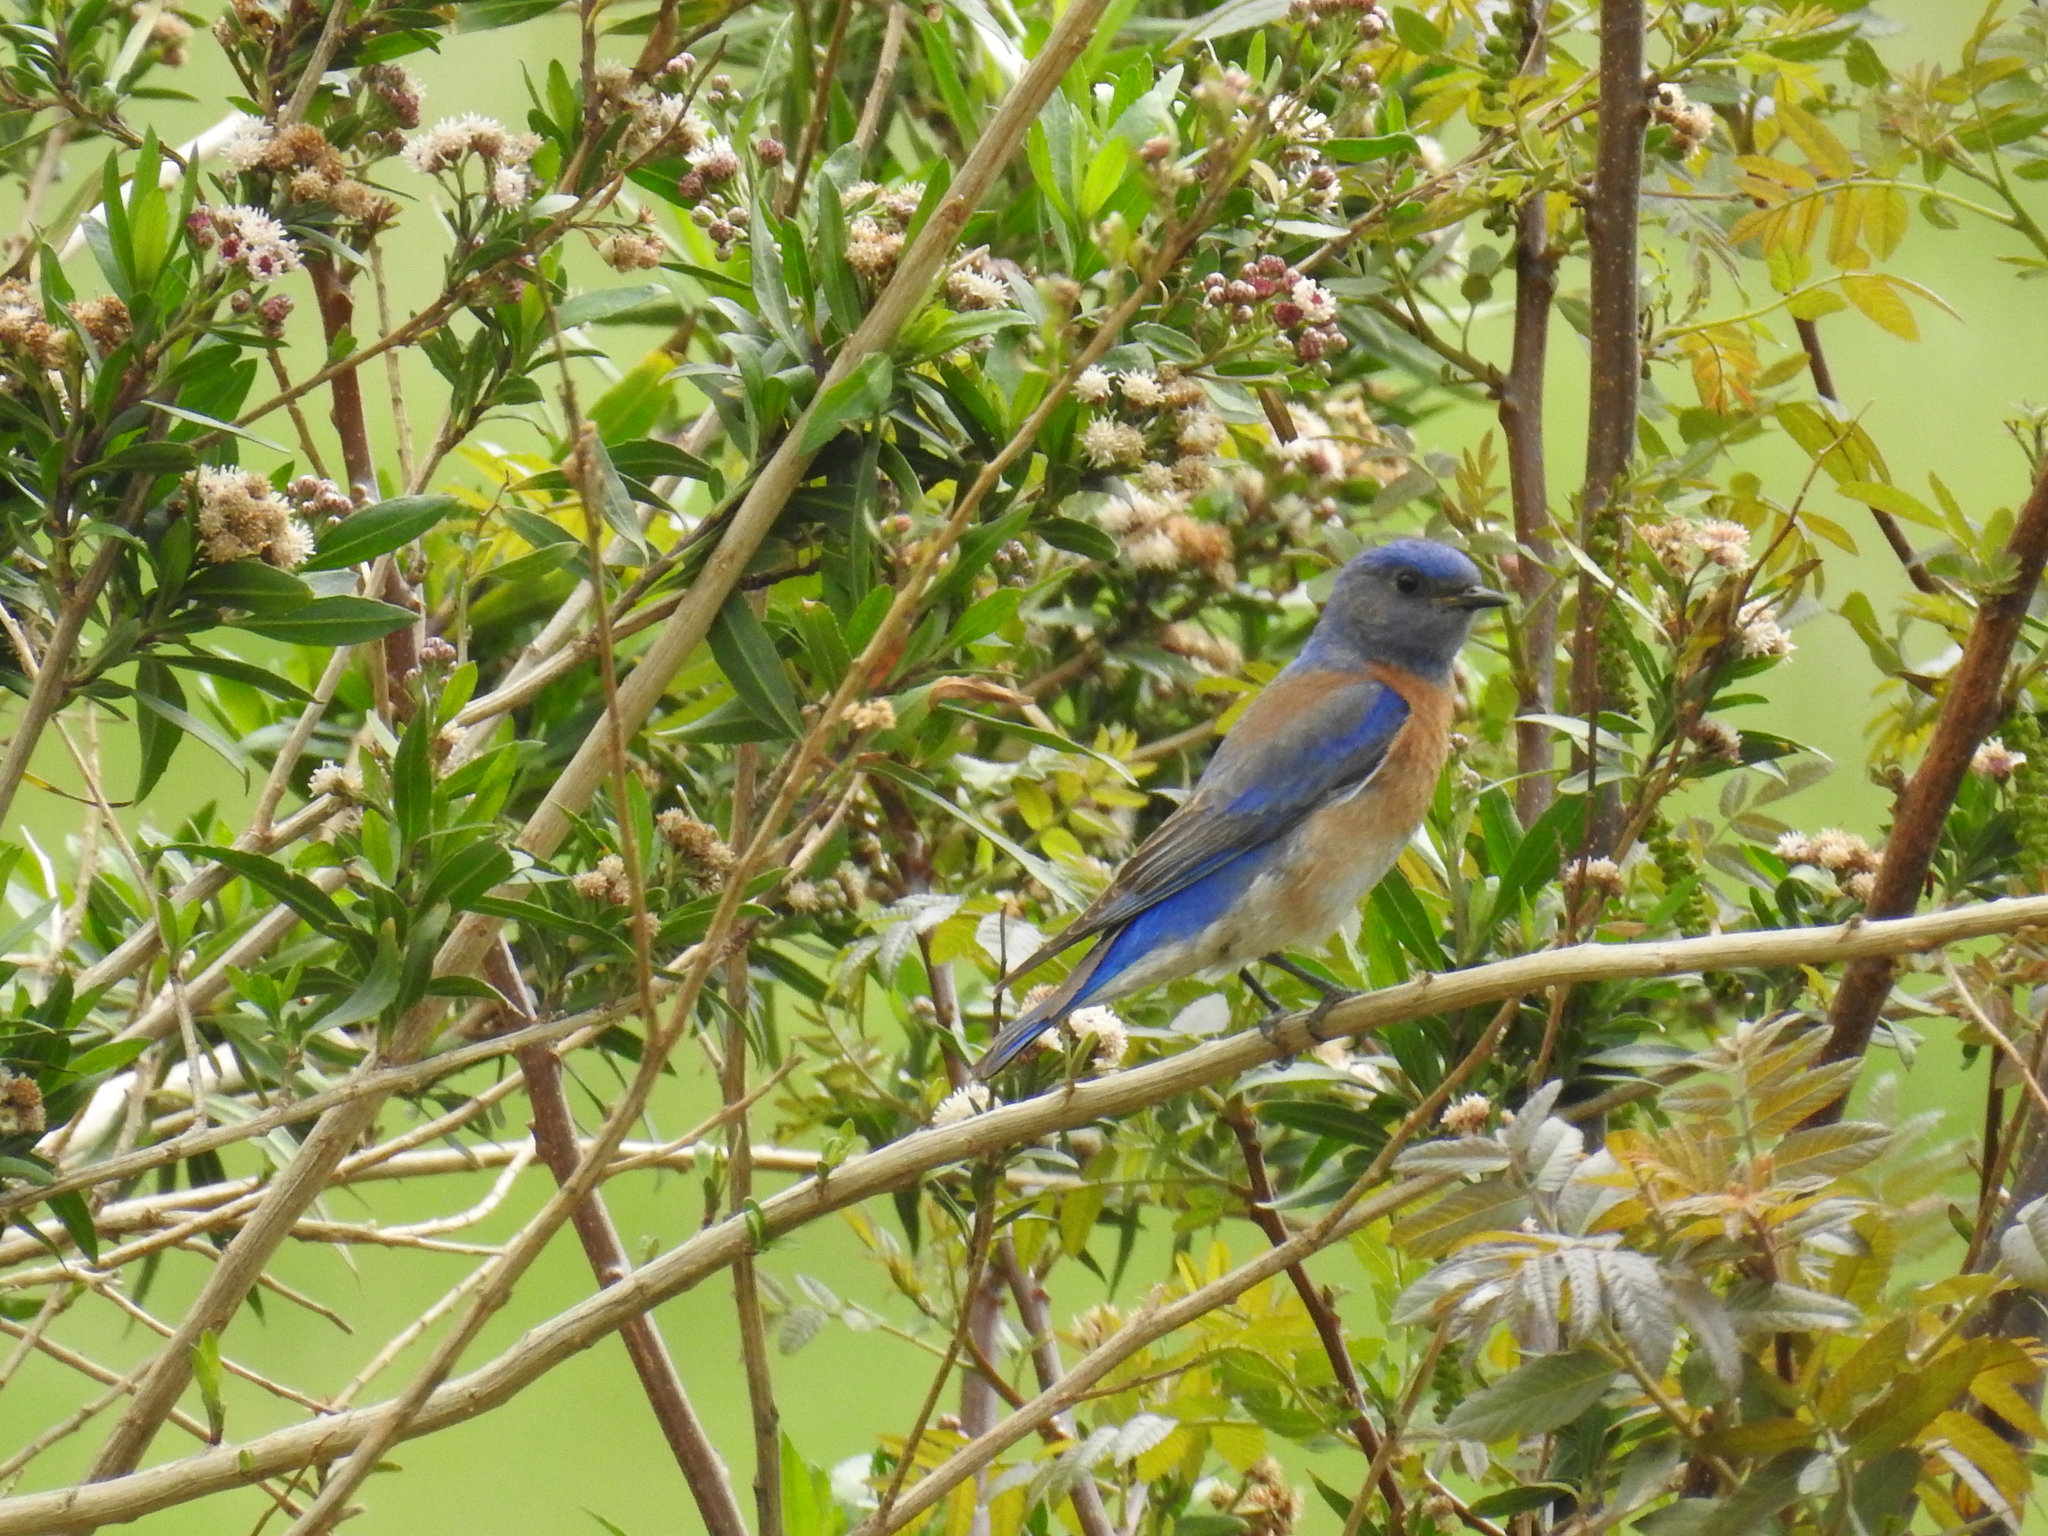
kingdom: Animalia
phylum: Chordata
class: Aves
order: Passeriformes
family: Turdidae
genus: Sialia
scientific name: Sialia mexicana
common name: Western bluebird
